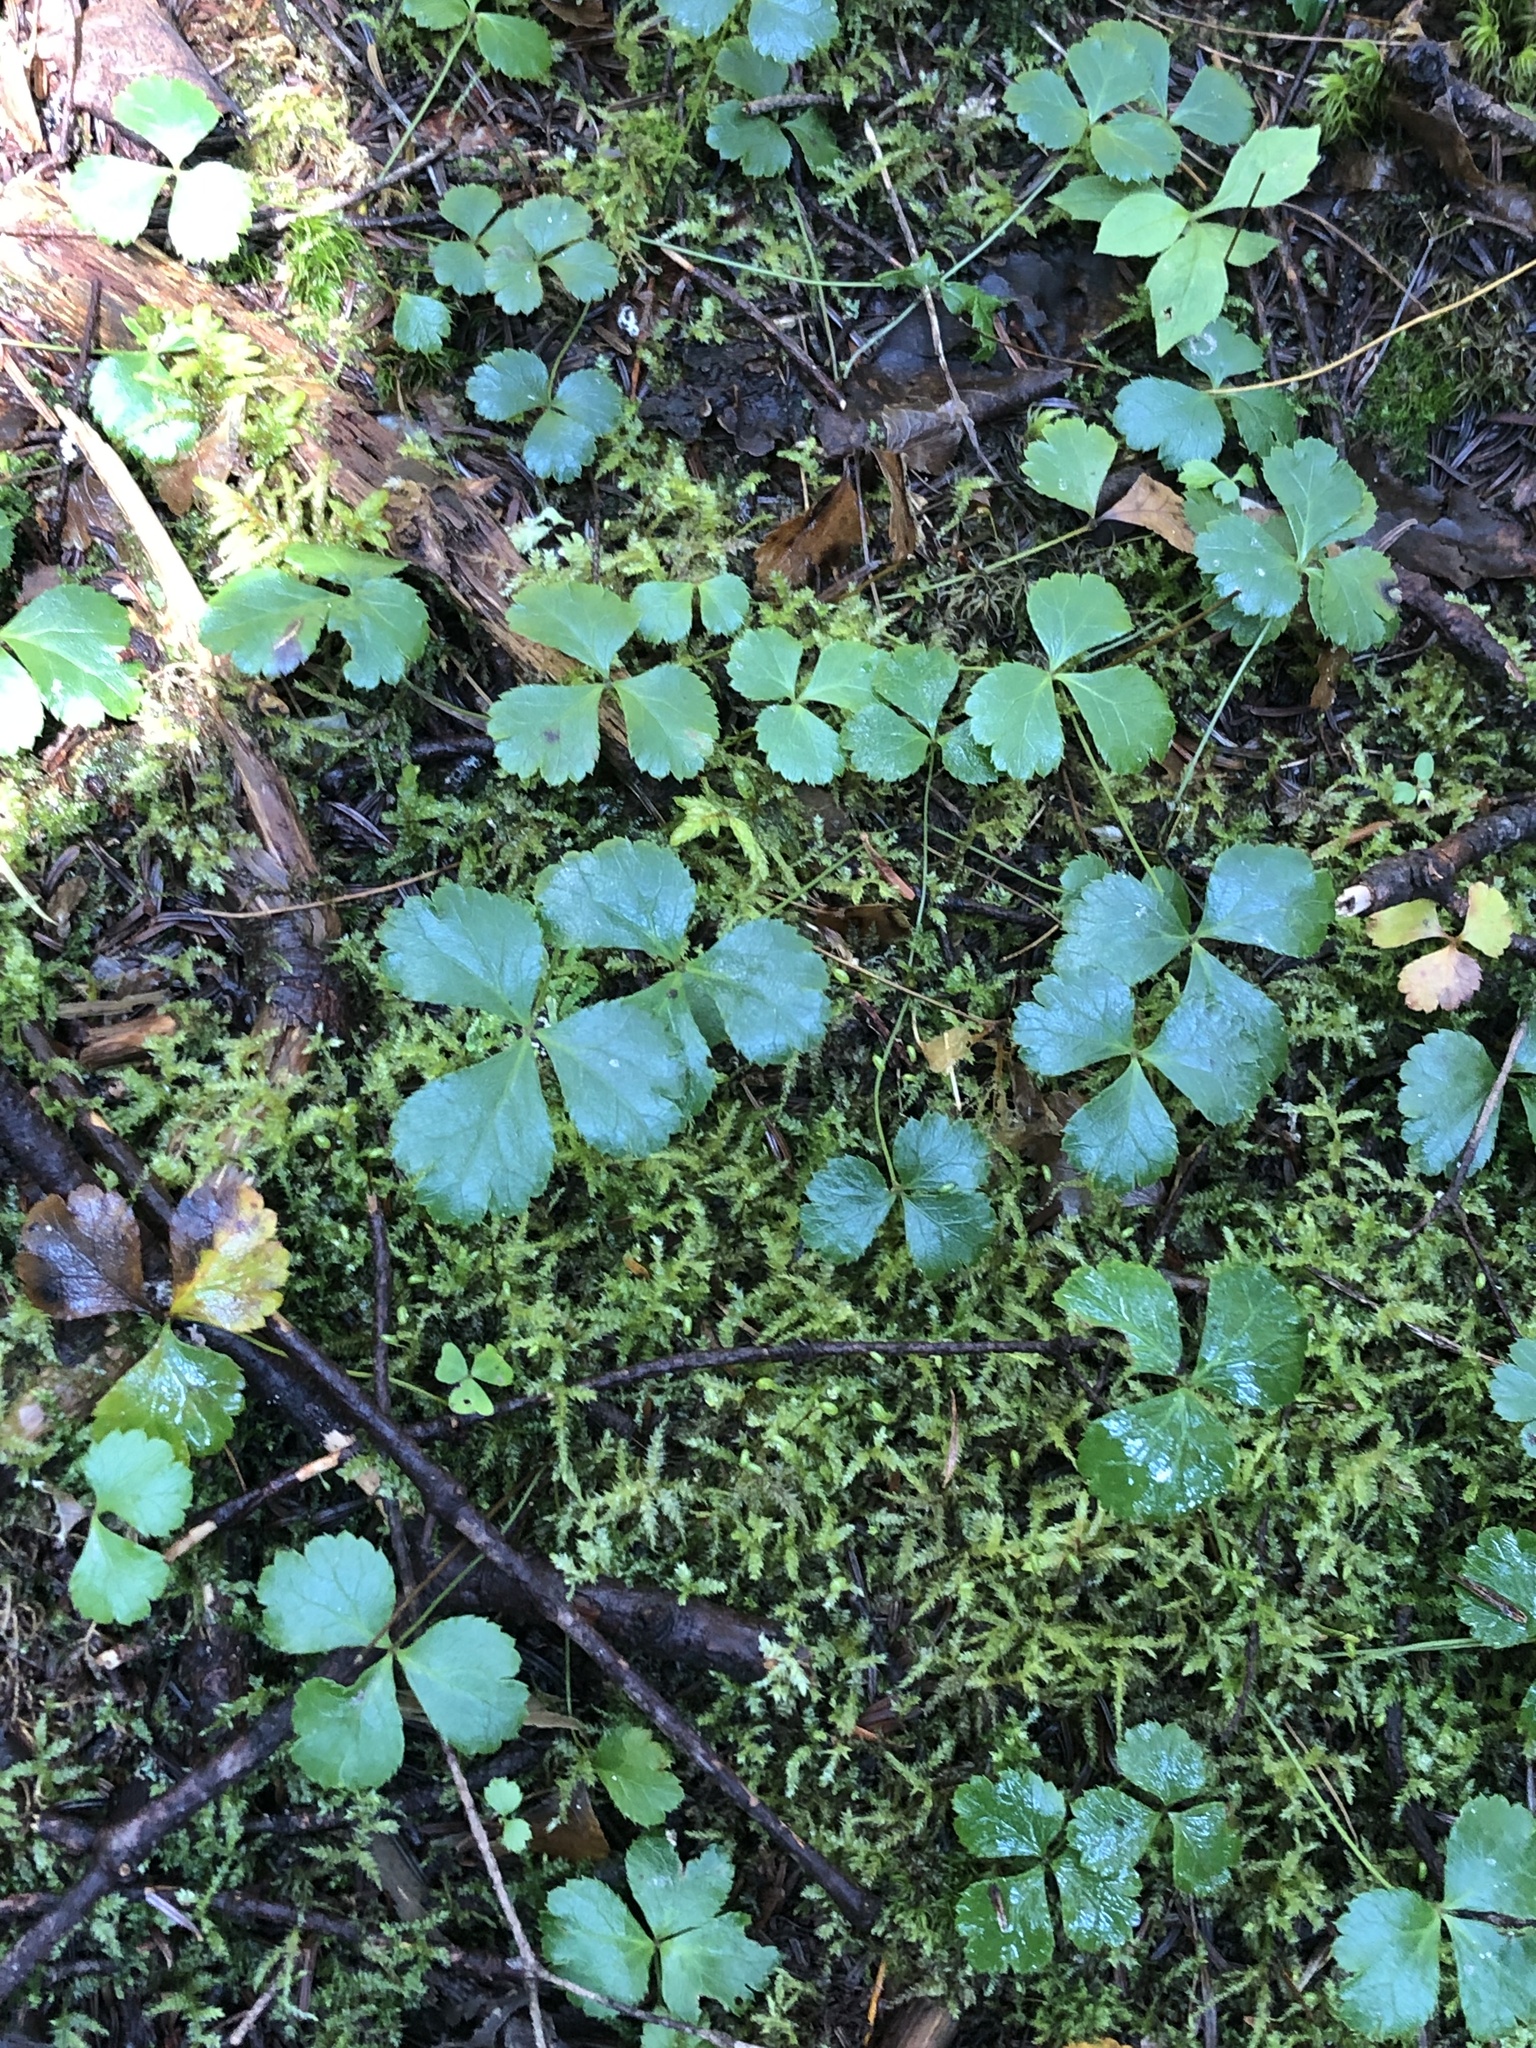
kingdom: Plantae
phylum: Tracheophyta
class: Magnoliopsida
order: Ranunculales
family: Ranunculaceae
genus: Coptis
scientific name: Coptis trifolia
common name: Canker-root
